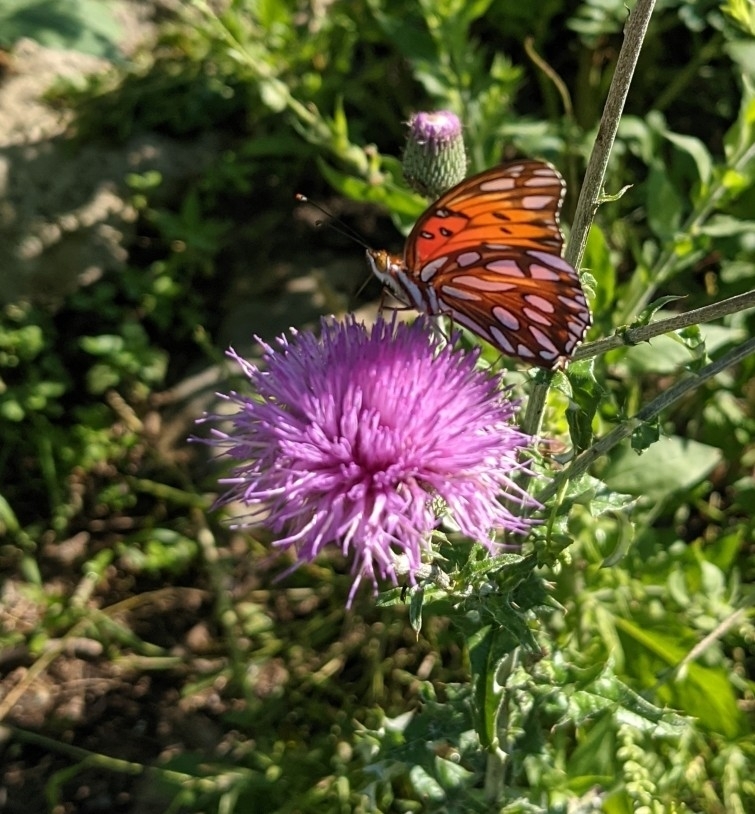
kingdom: Animalia
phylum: Arthropoda
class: Insecta
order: Lepidoptera
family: Nymphalidae
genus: Dione
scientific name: Dione vanillae
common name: Gulf fritillary
